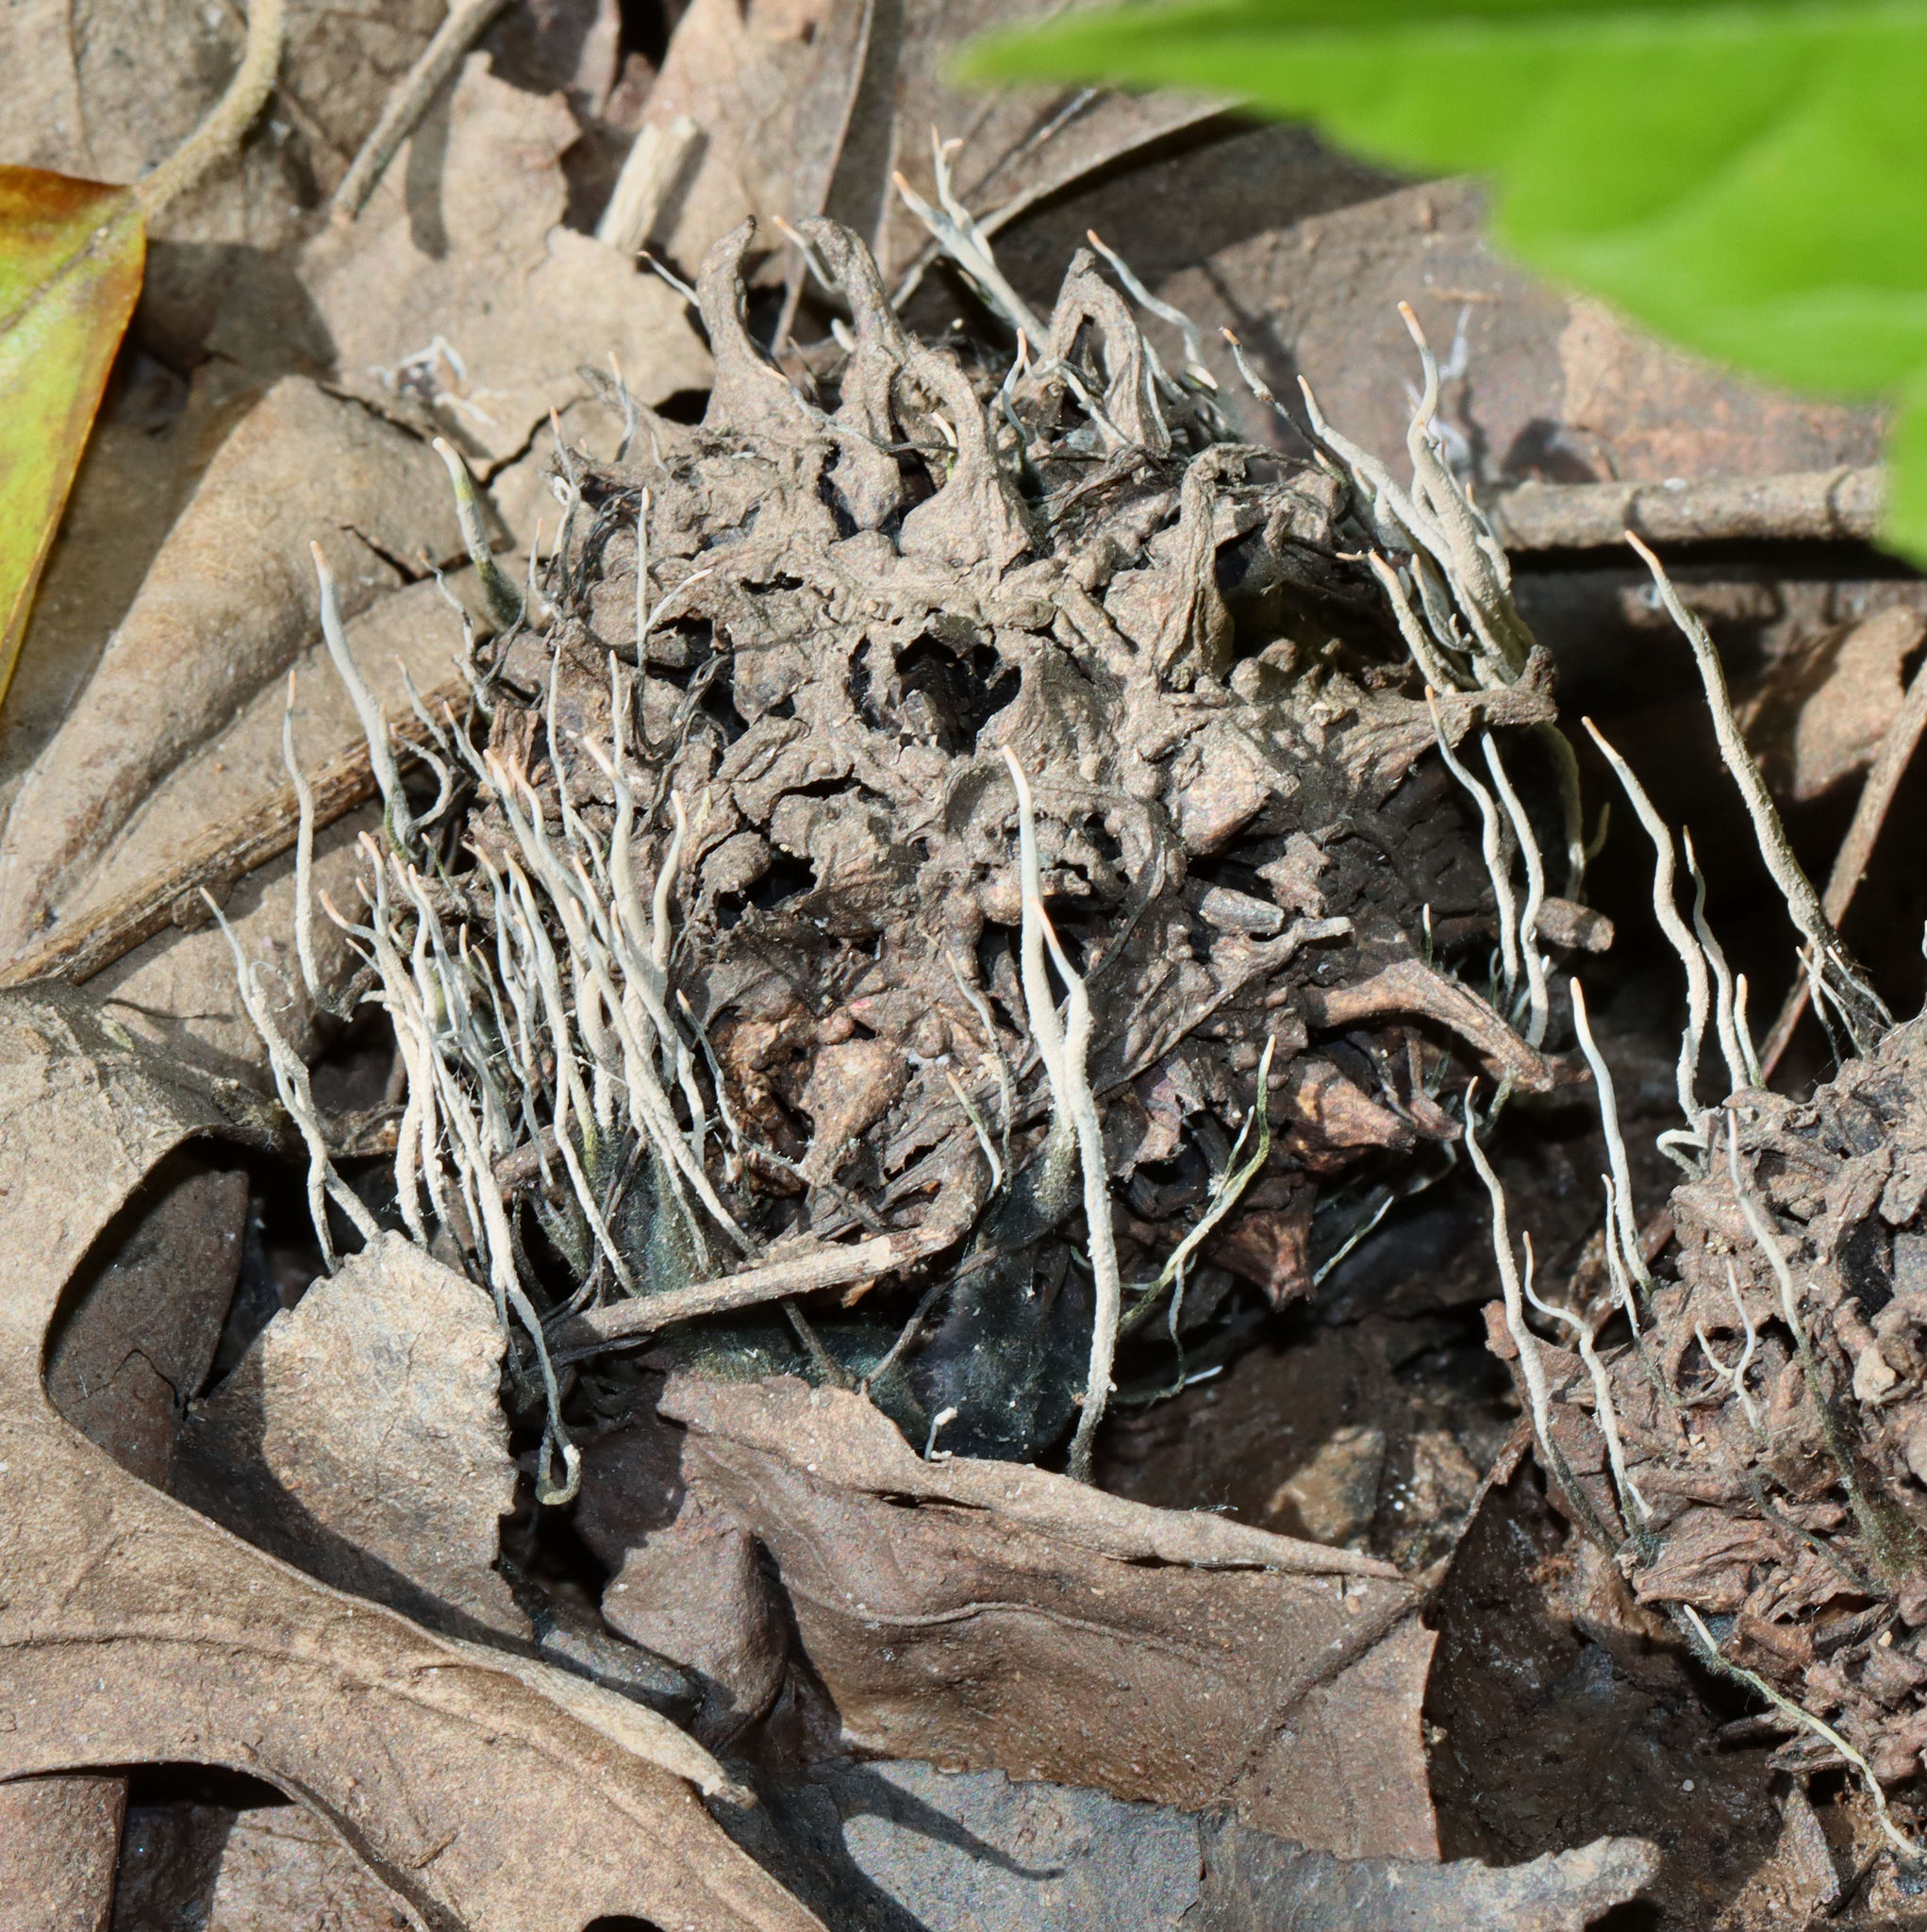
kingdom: Fungi
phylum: Ascomycota
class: Sordariomycetes
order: Xylariales
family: Xylariaceae
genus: Xylaria
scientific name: Xylaria liquidambaris
